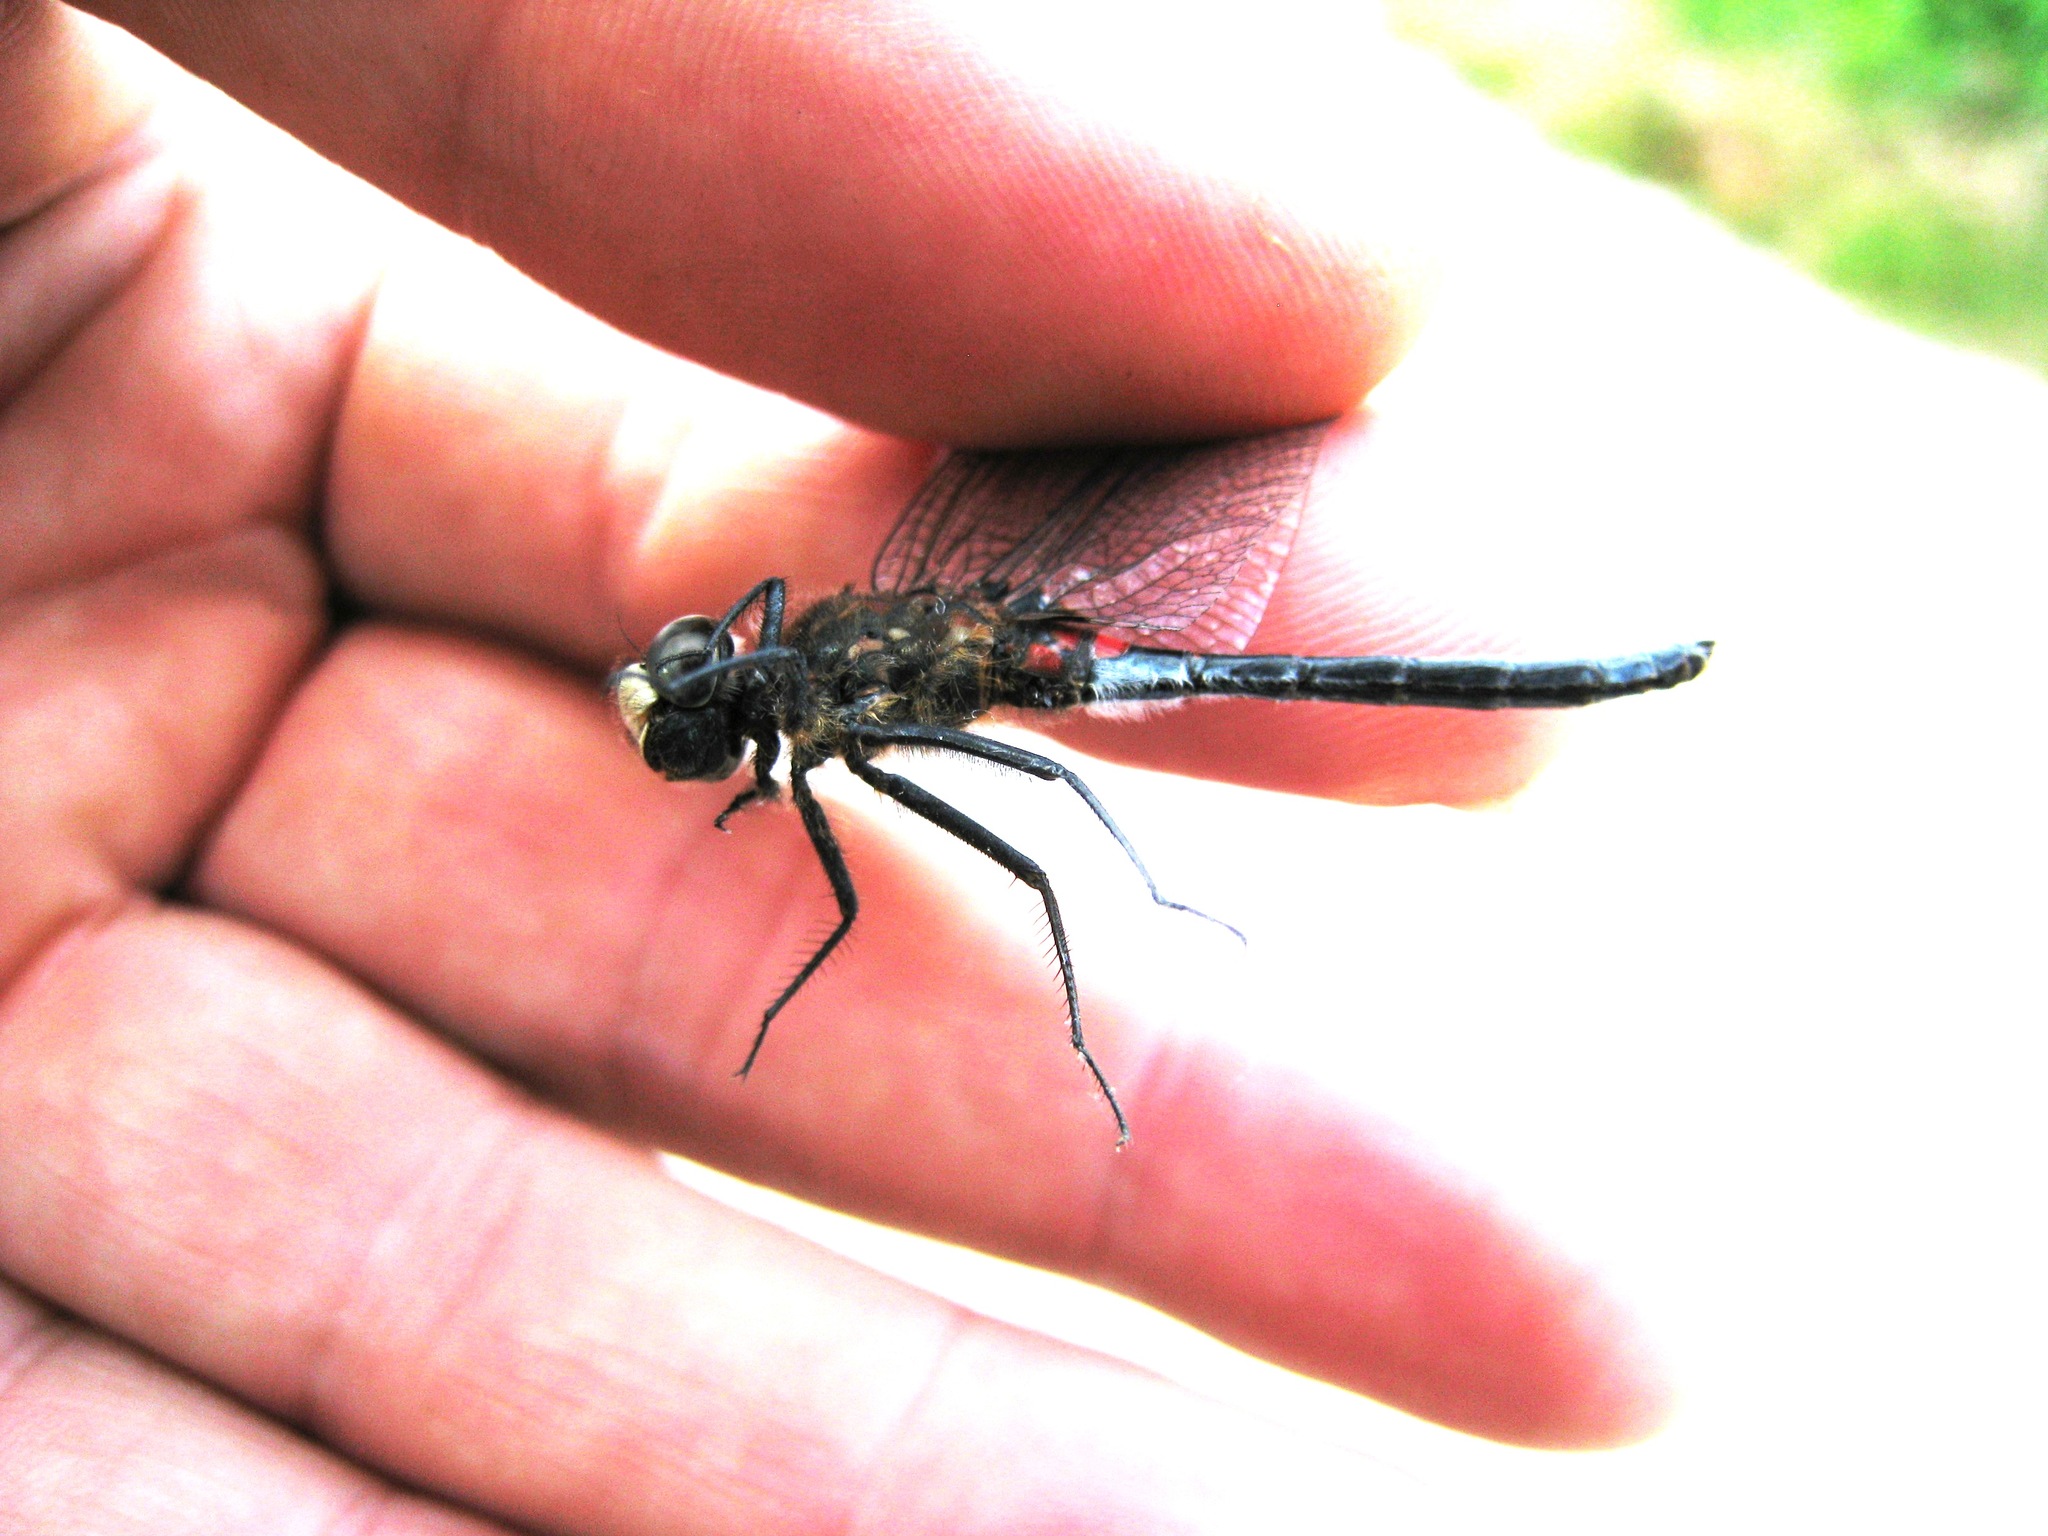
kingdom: Animalia
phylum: Arthropoda
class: Insecta
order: Odonata
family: Libellulidae
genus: Leucorrhinia
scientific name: Leucorrhinia dubia
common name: White-faced darter
